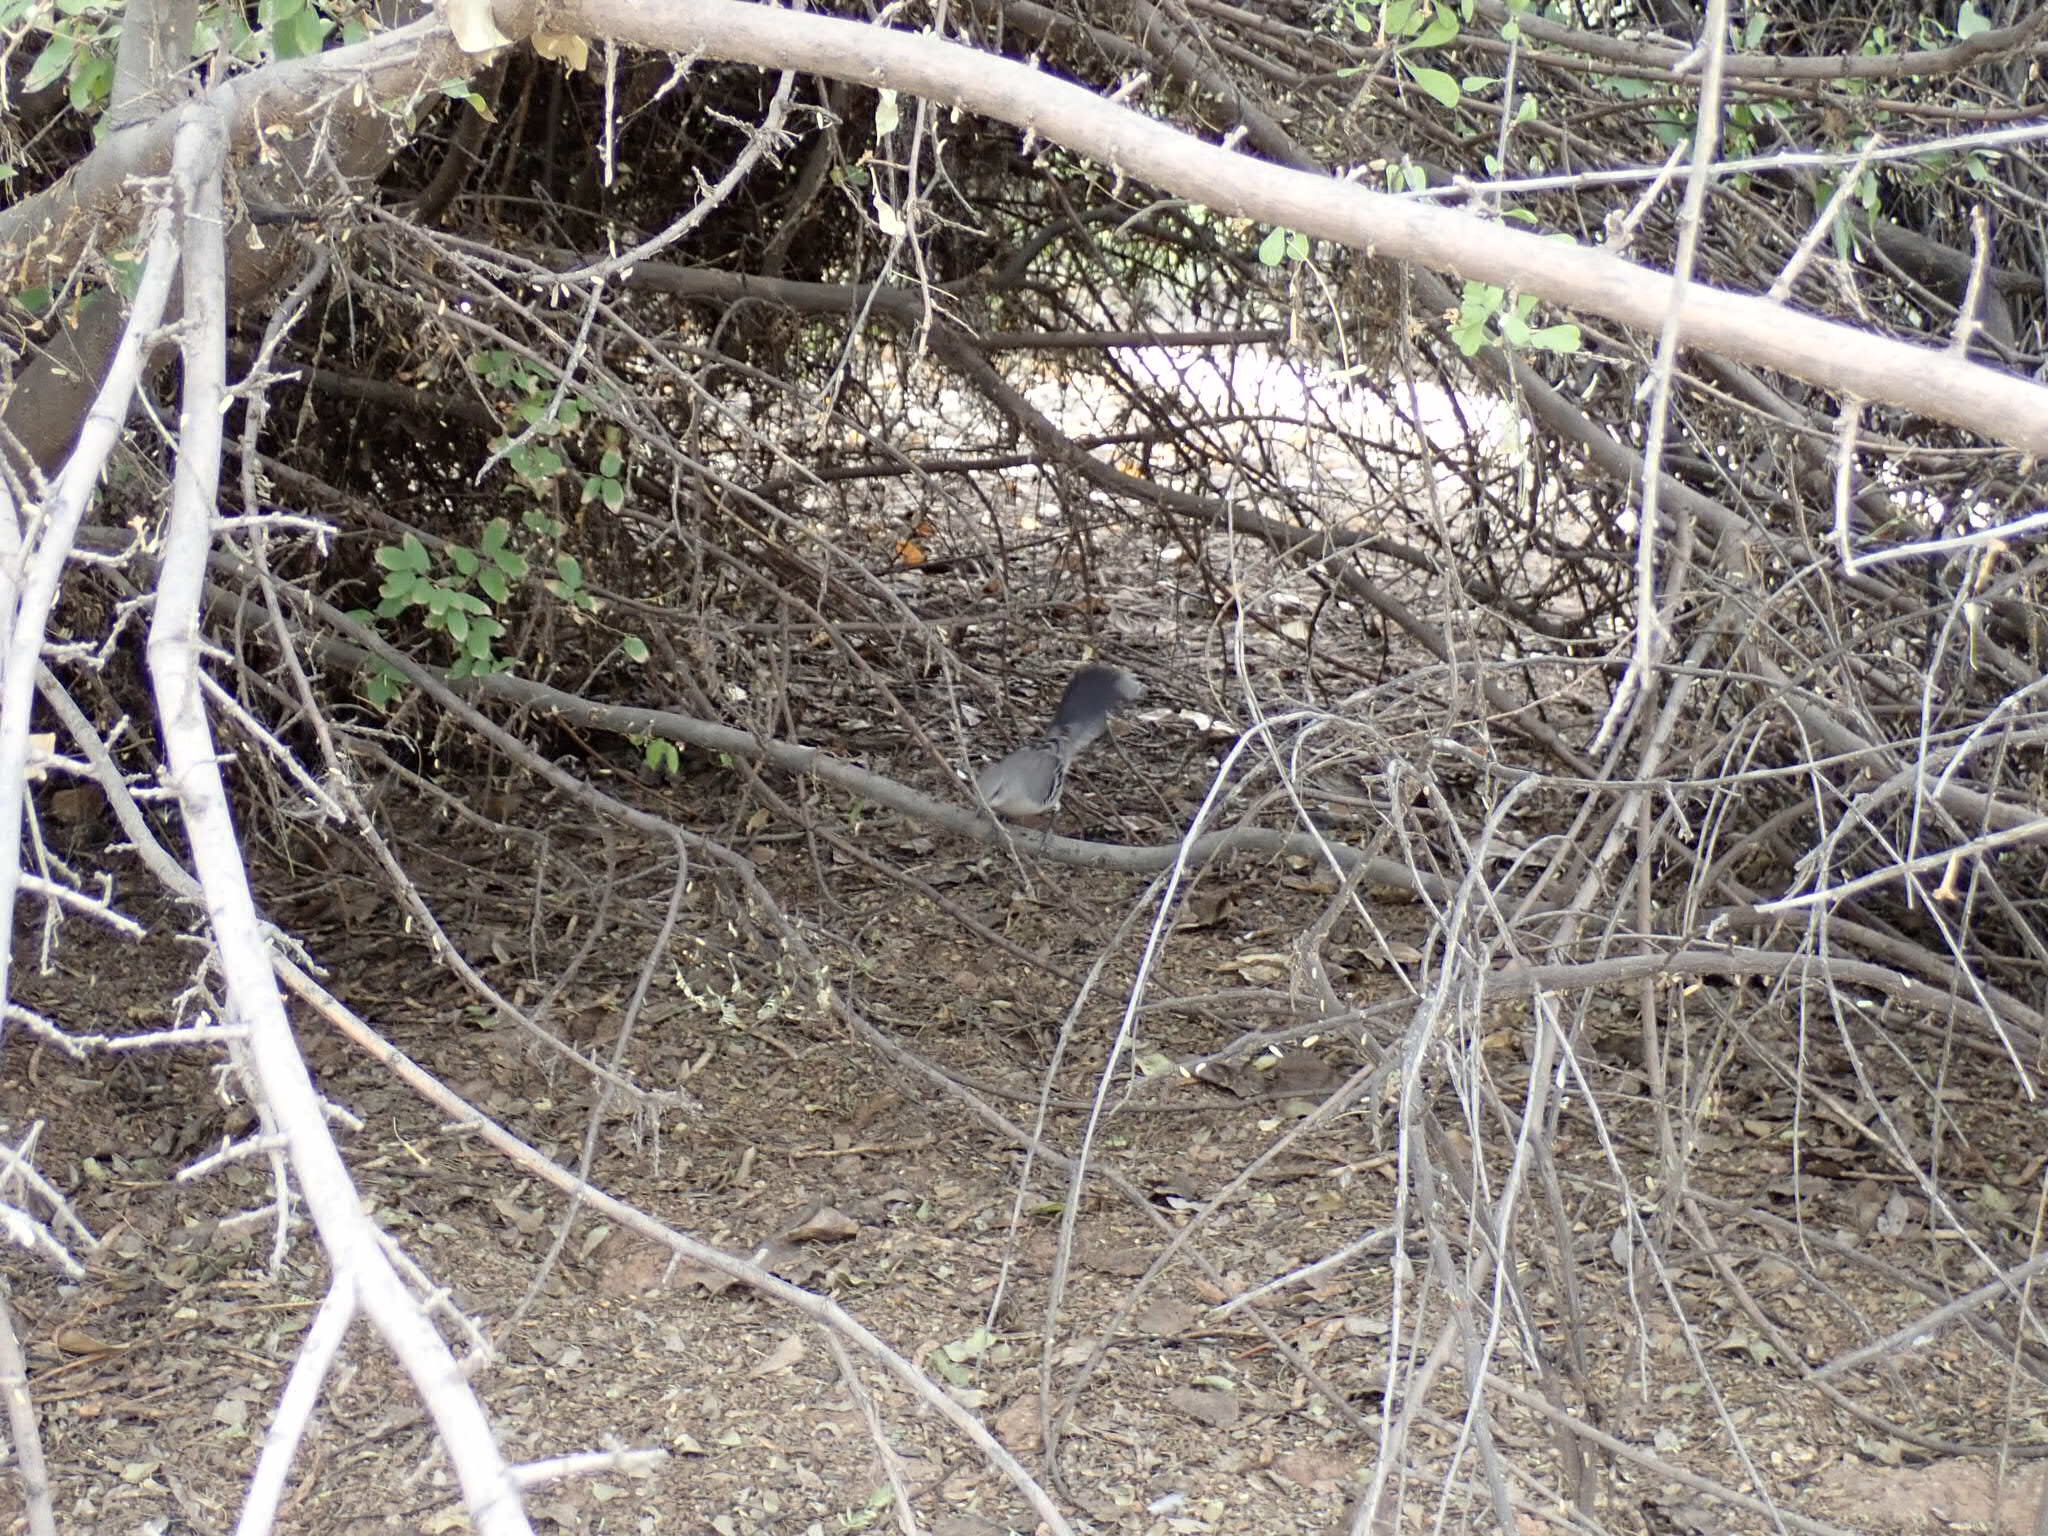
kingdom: Animalia
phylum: Chordata
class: Aves
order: Passeriformes
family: Mimidae
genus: Mimus
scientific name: Mimus polyglottos
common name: Northern mockingbird
